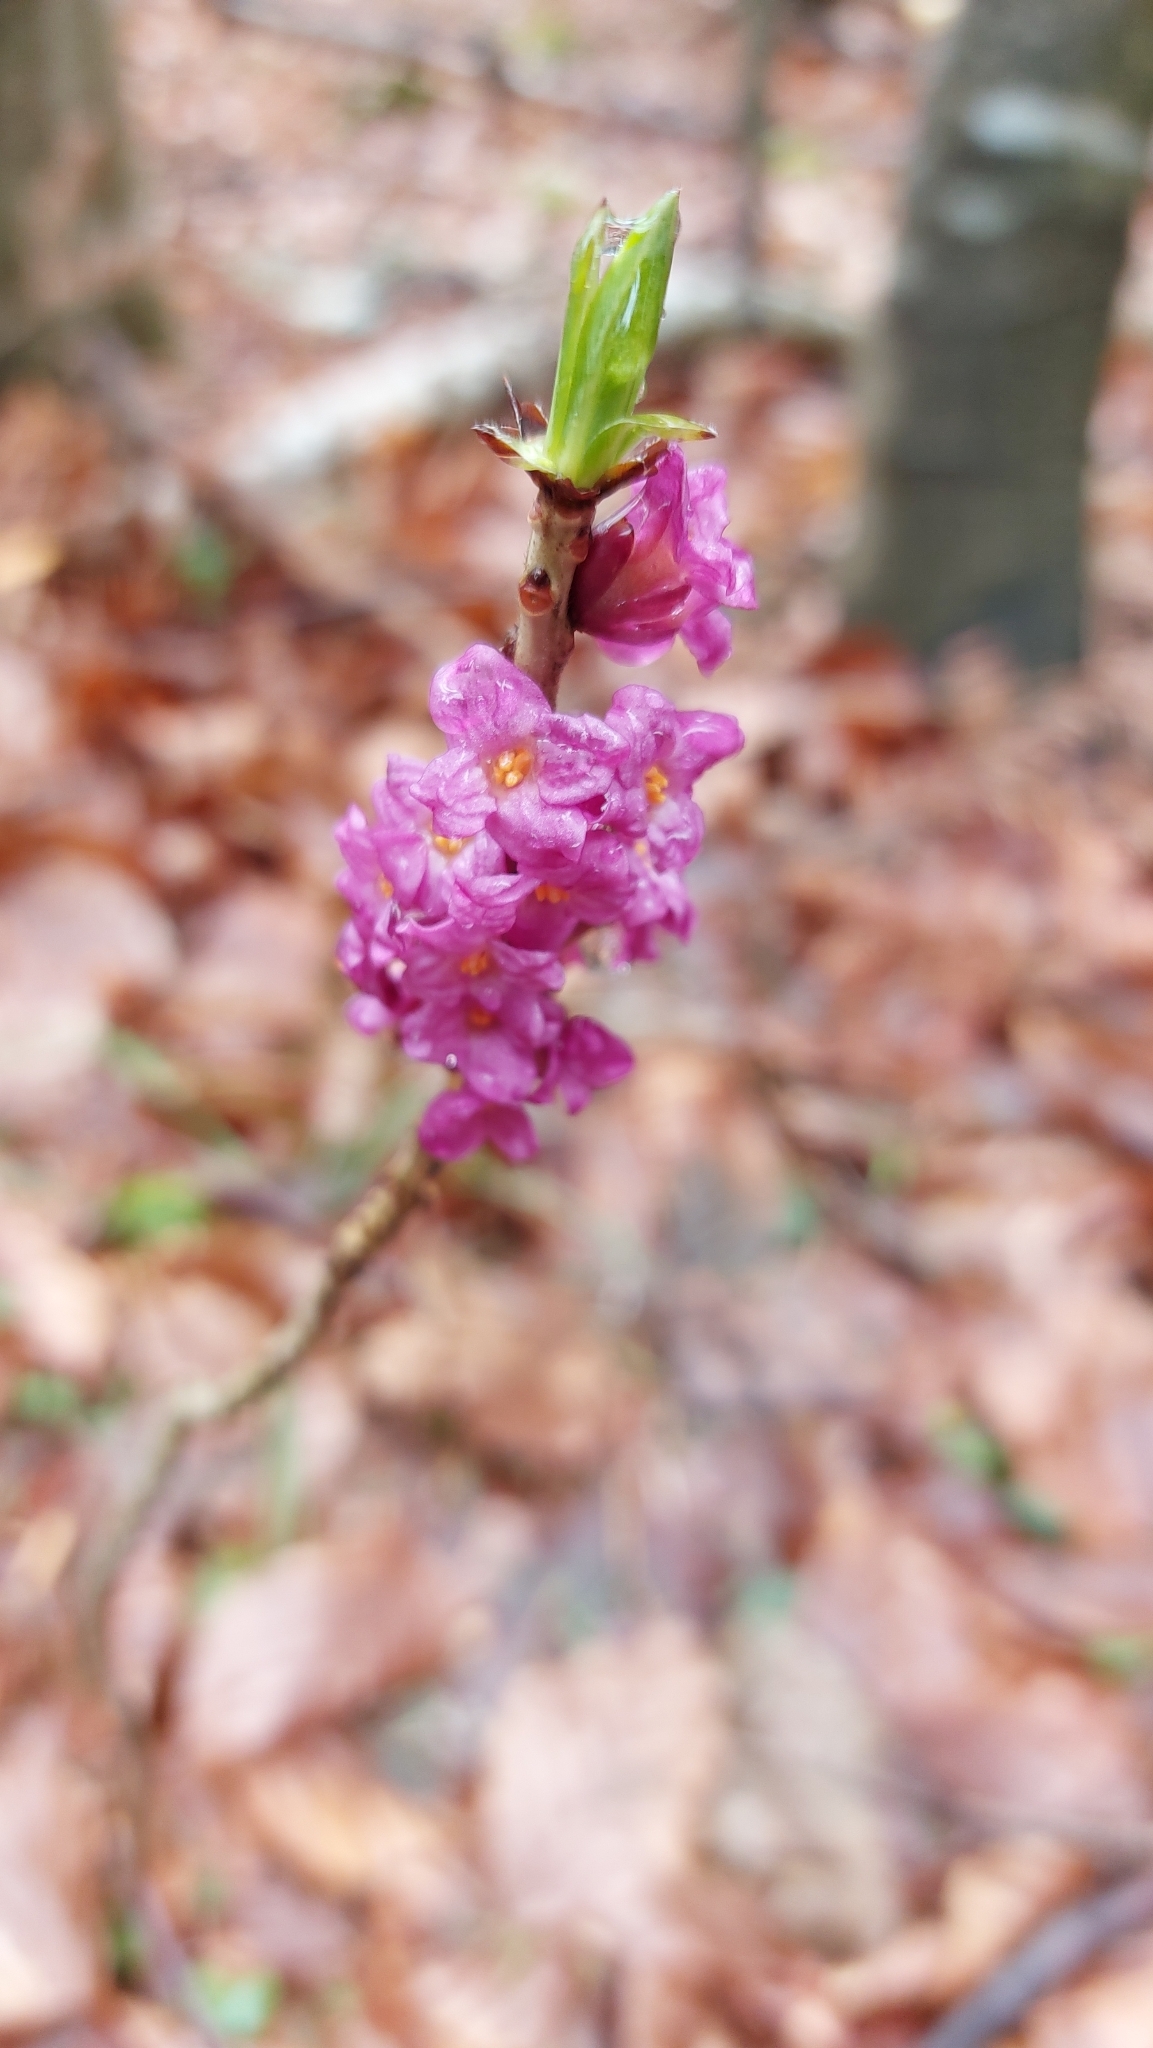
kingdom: Plantae
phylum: Tracheophyta
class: Magnoliopsida
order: Malvales
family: Thymelaeaceae
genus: Daphne
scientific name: Daphne mezereum
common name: Mezereon
